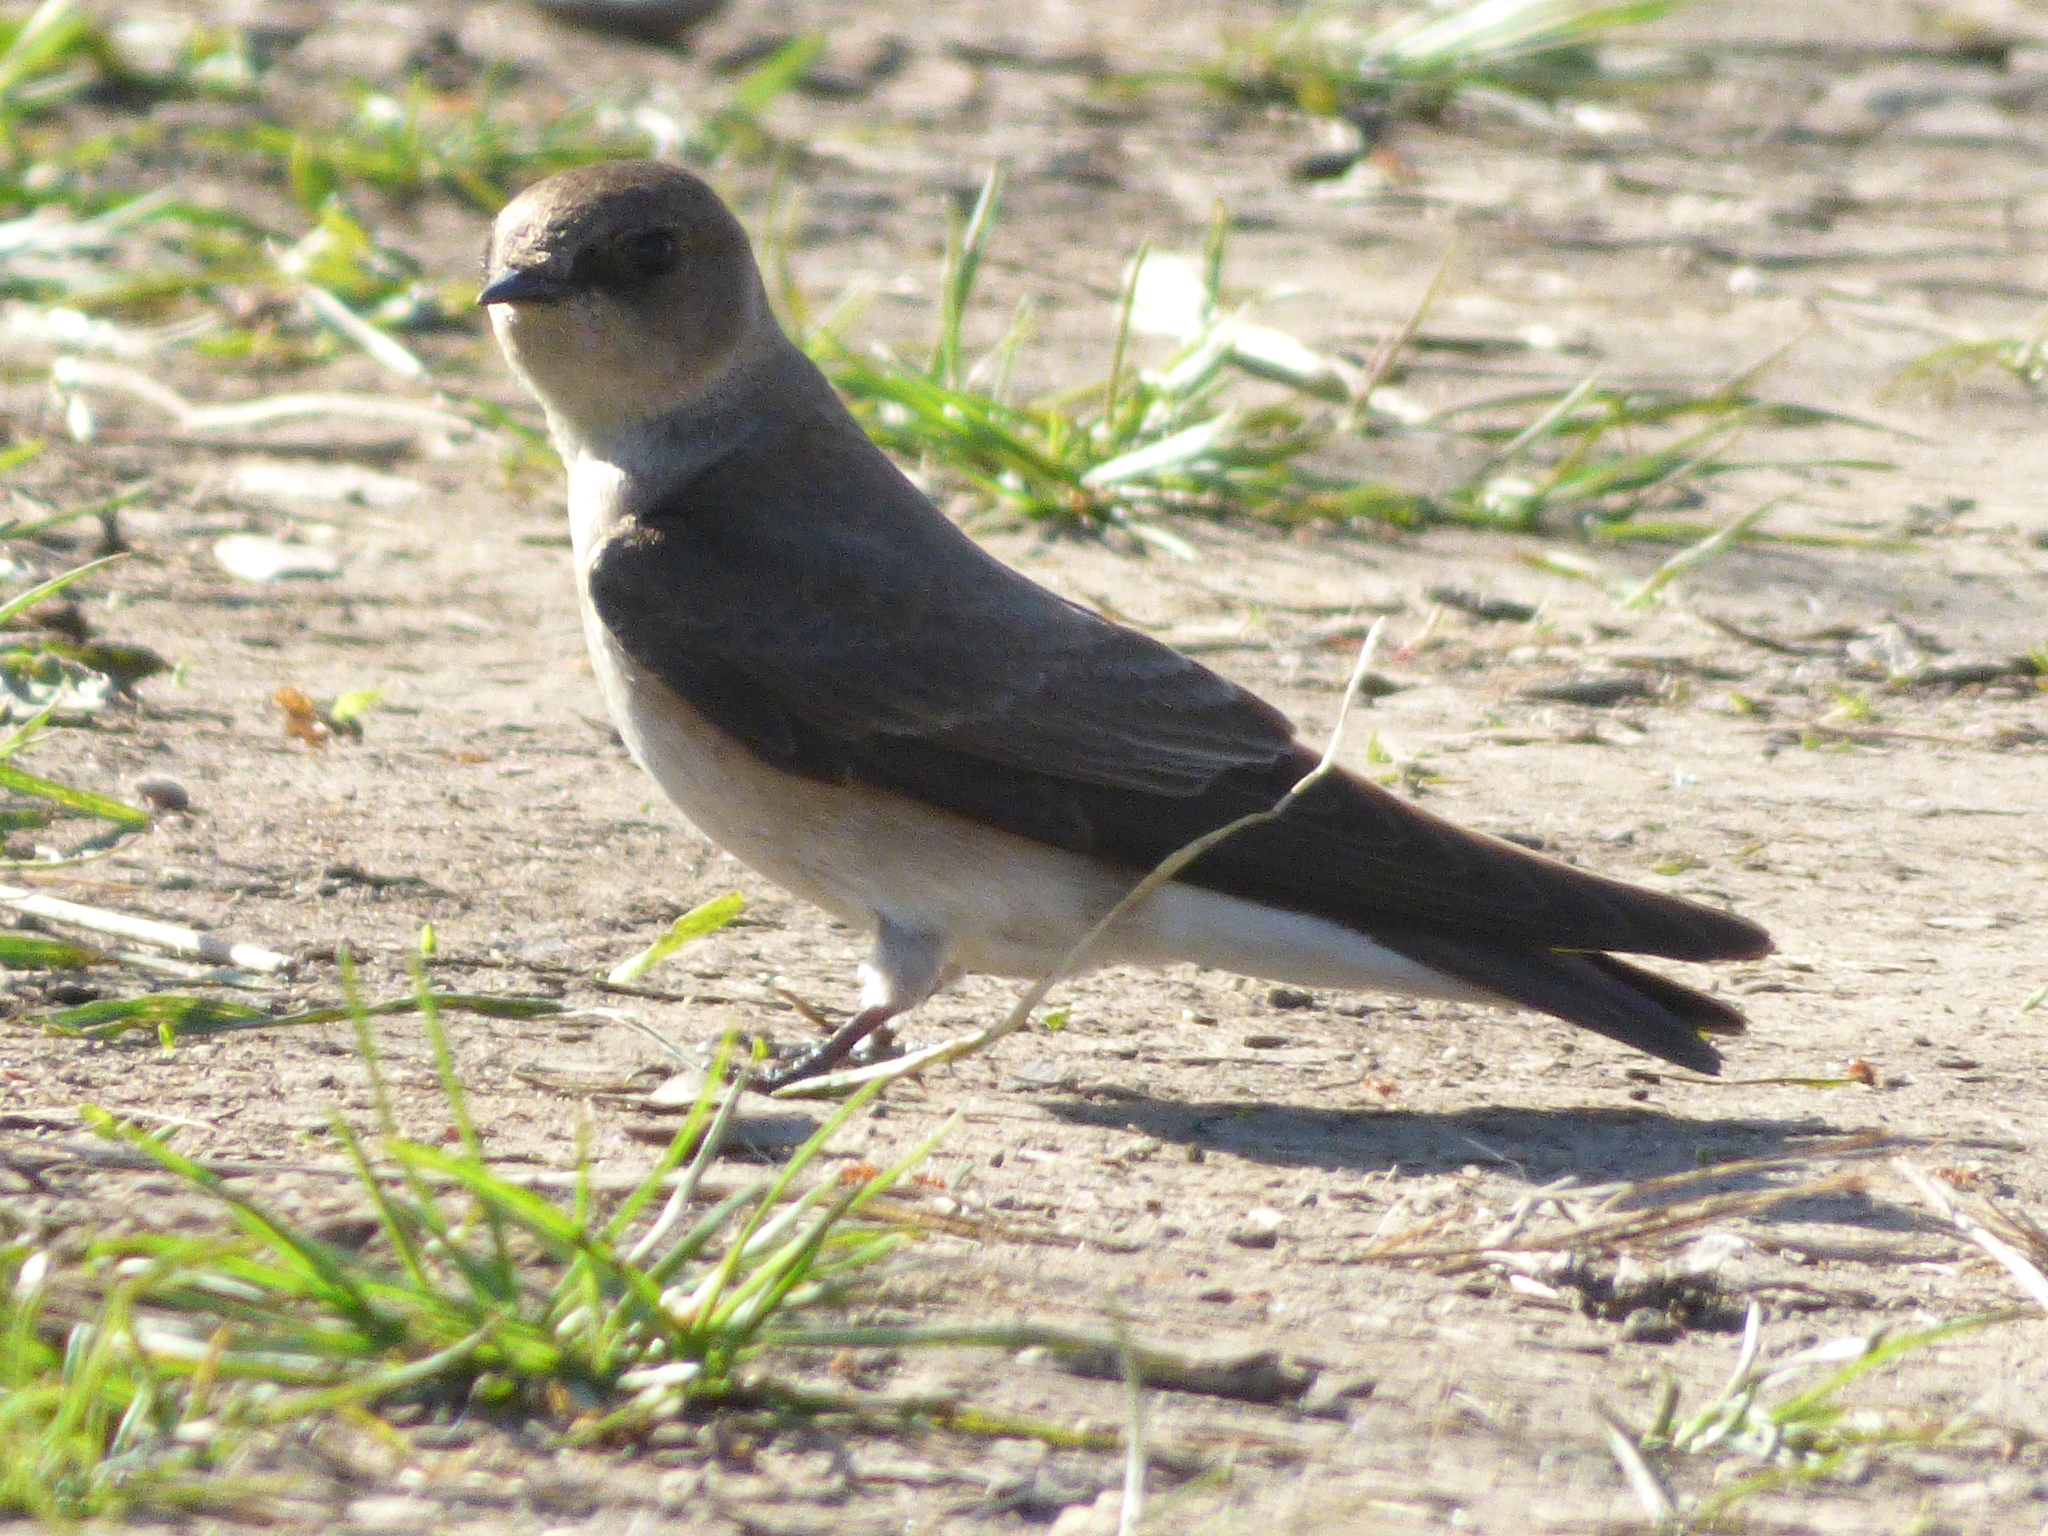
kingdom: Animalia
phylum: Chordata
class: Aves
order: Passeriformes
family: Hirundinidae
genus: Stelgidopteryx
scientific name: Stelgidopteryx serripennis
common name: Northern rough-winged swallow
